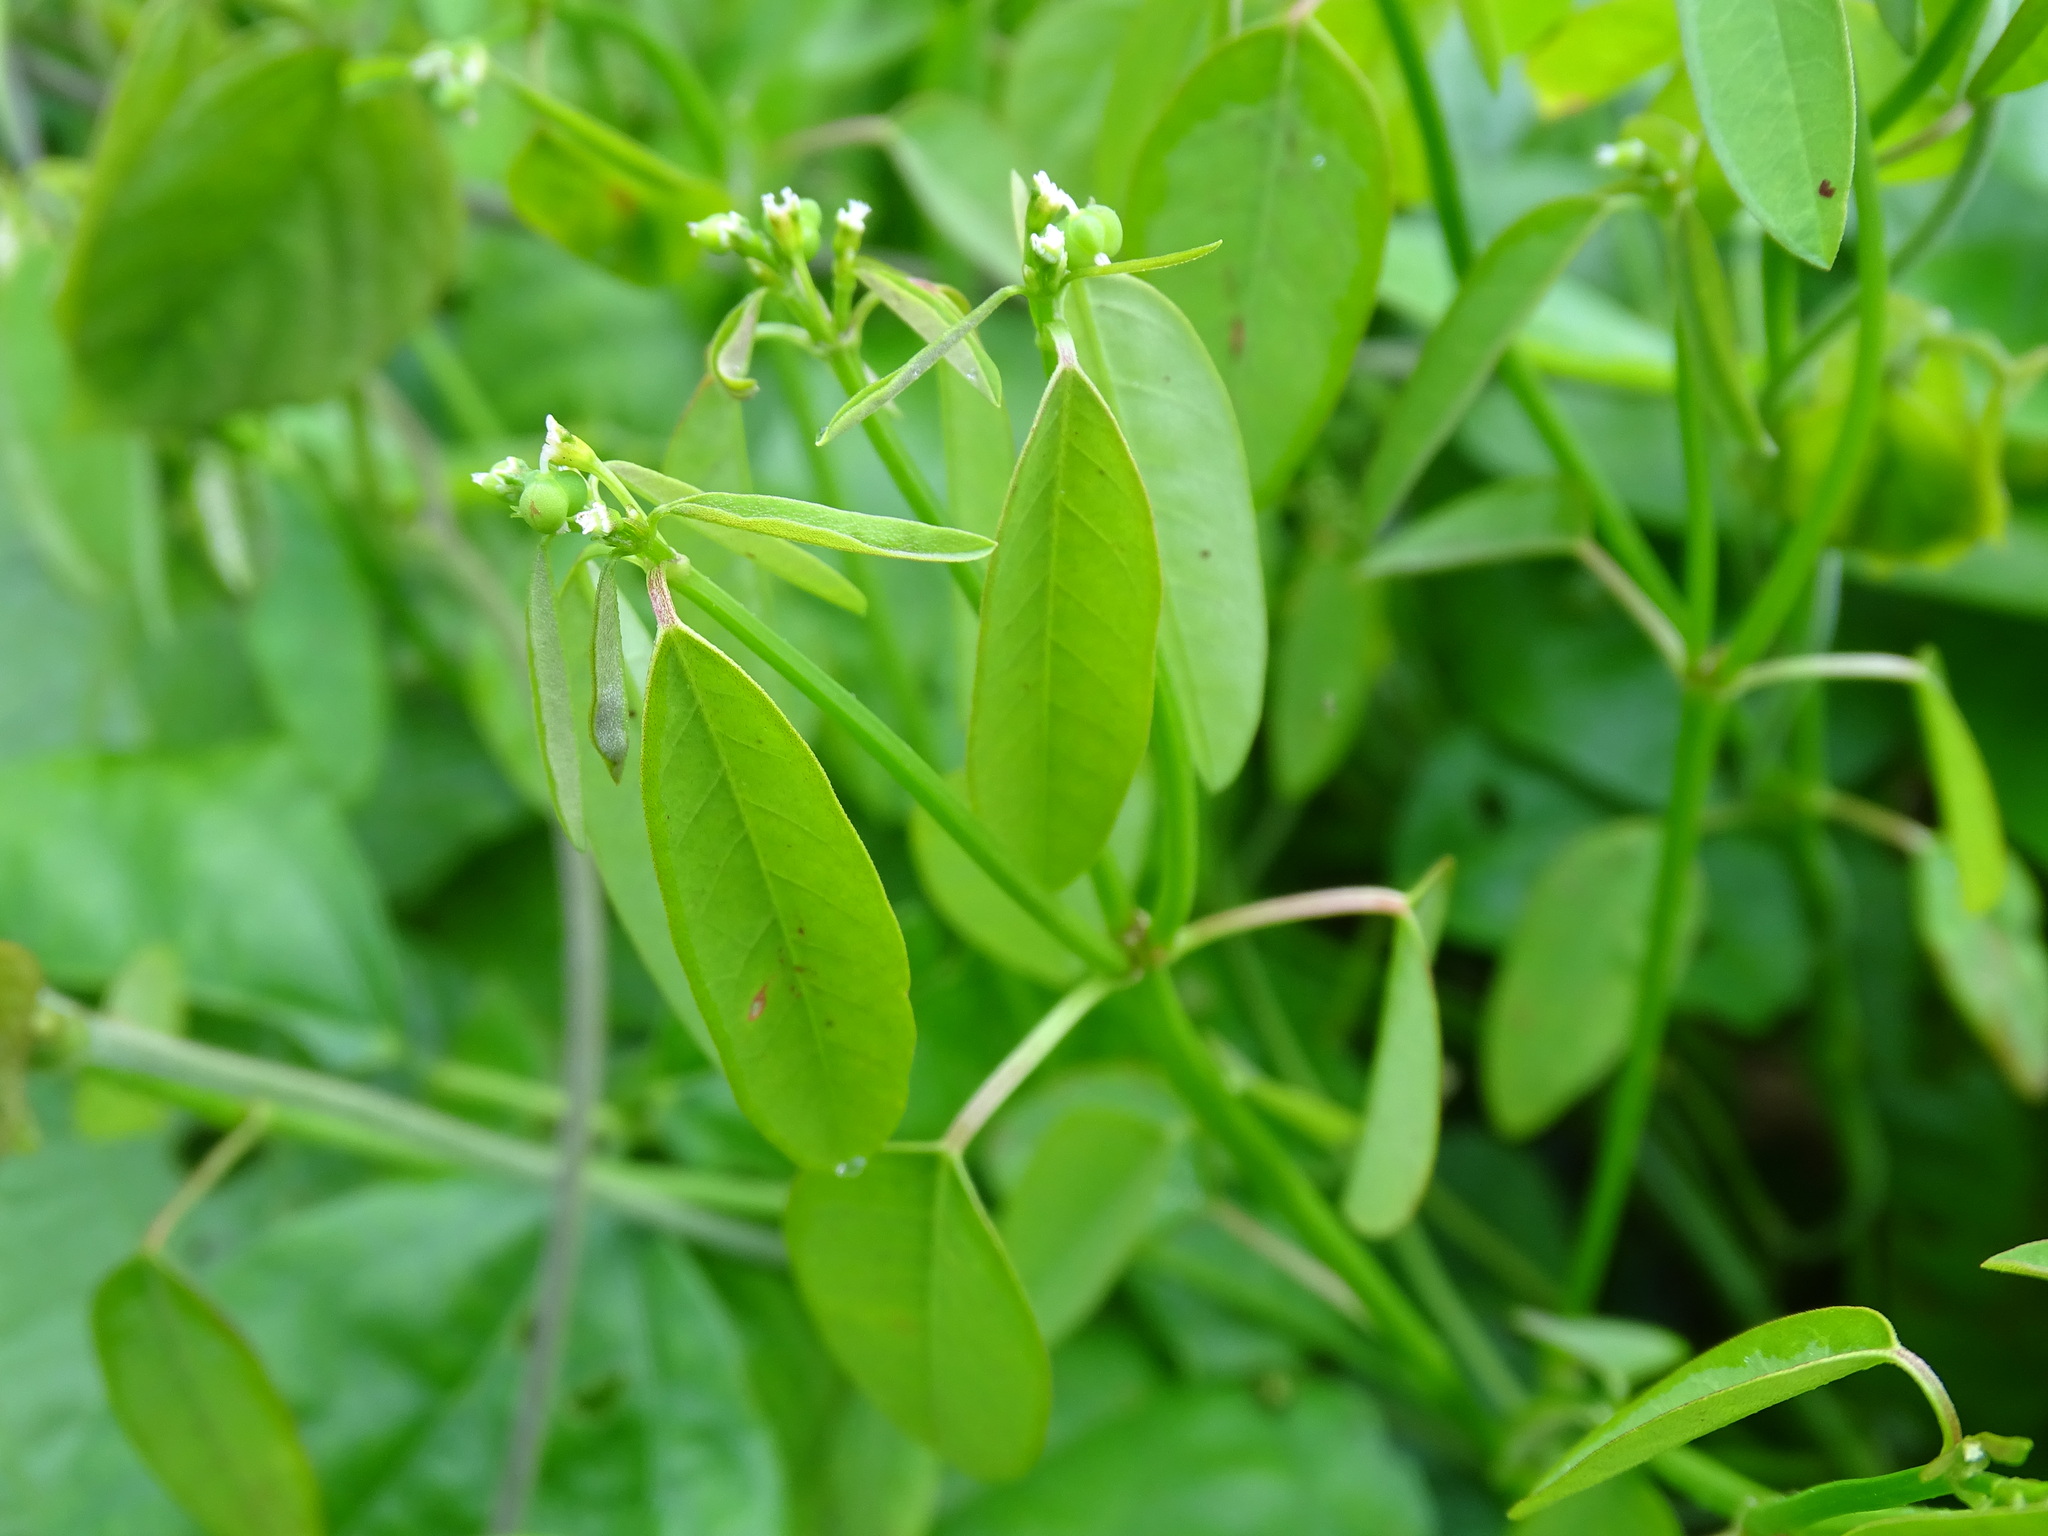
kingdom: Plantae
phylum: Tracheophyta
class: Magnoliopsida
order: Malpighiales
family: Euphorbiaceae
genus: Euphorbia
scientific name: Euphorbia graminea
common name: Grassleaf spurge
